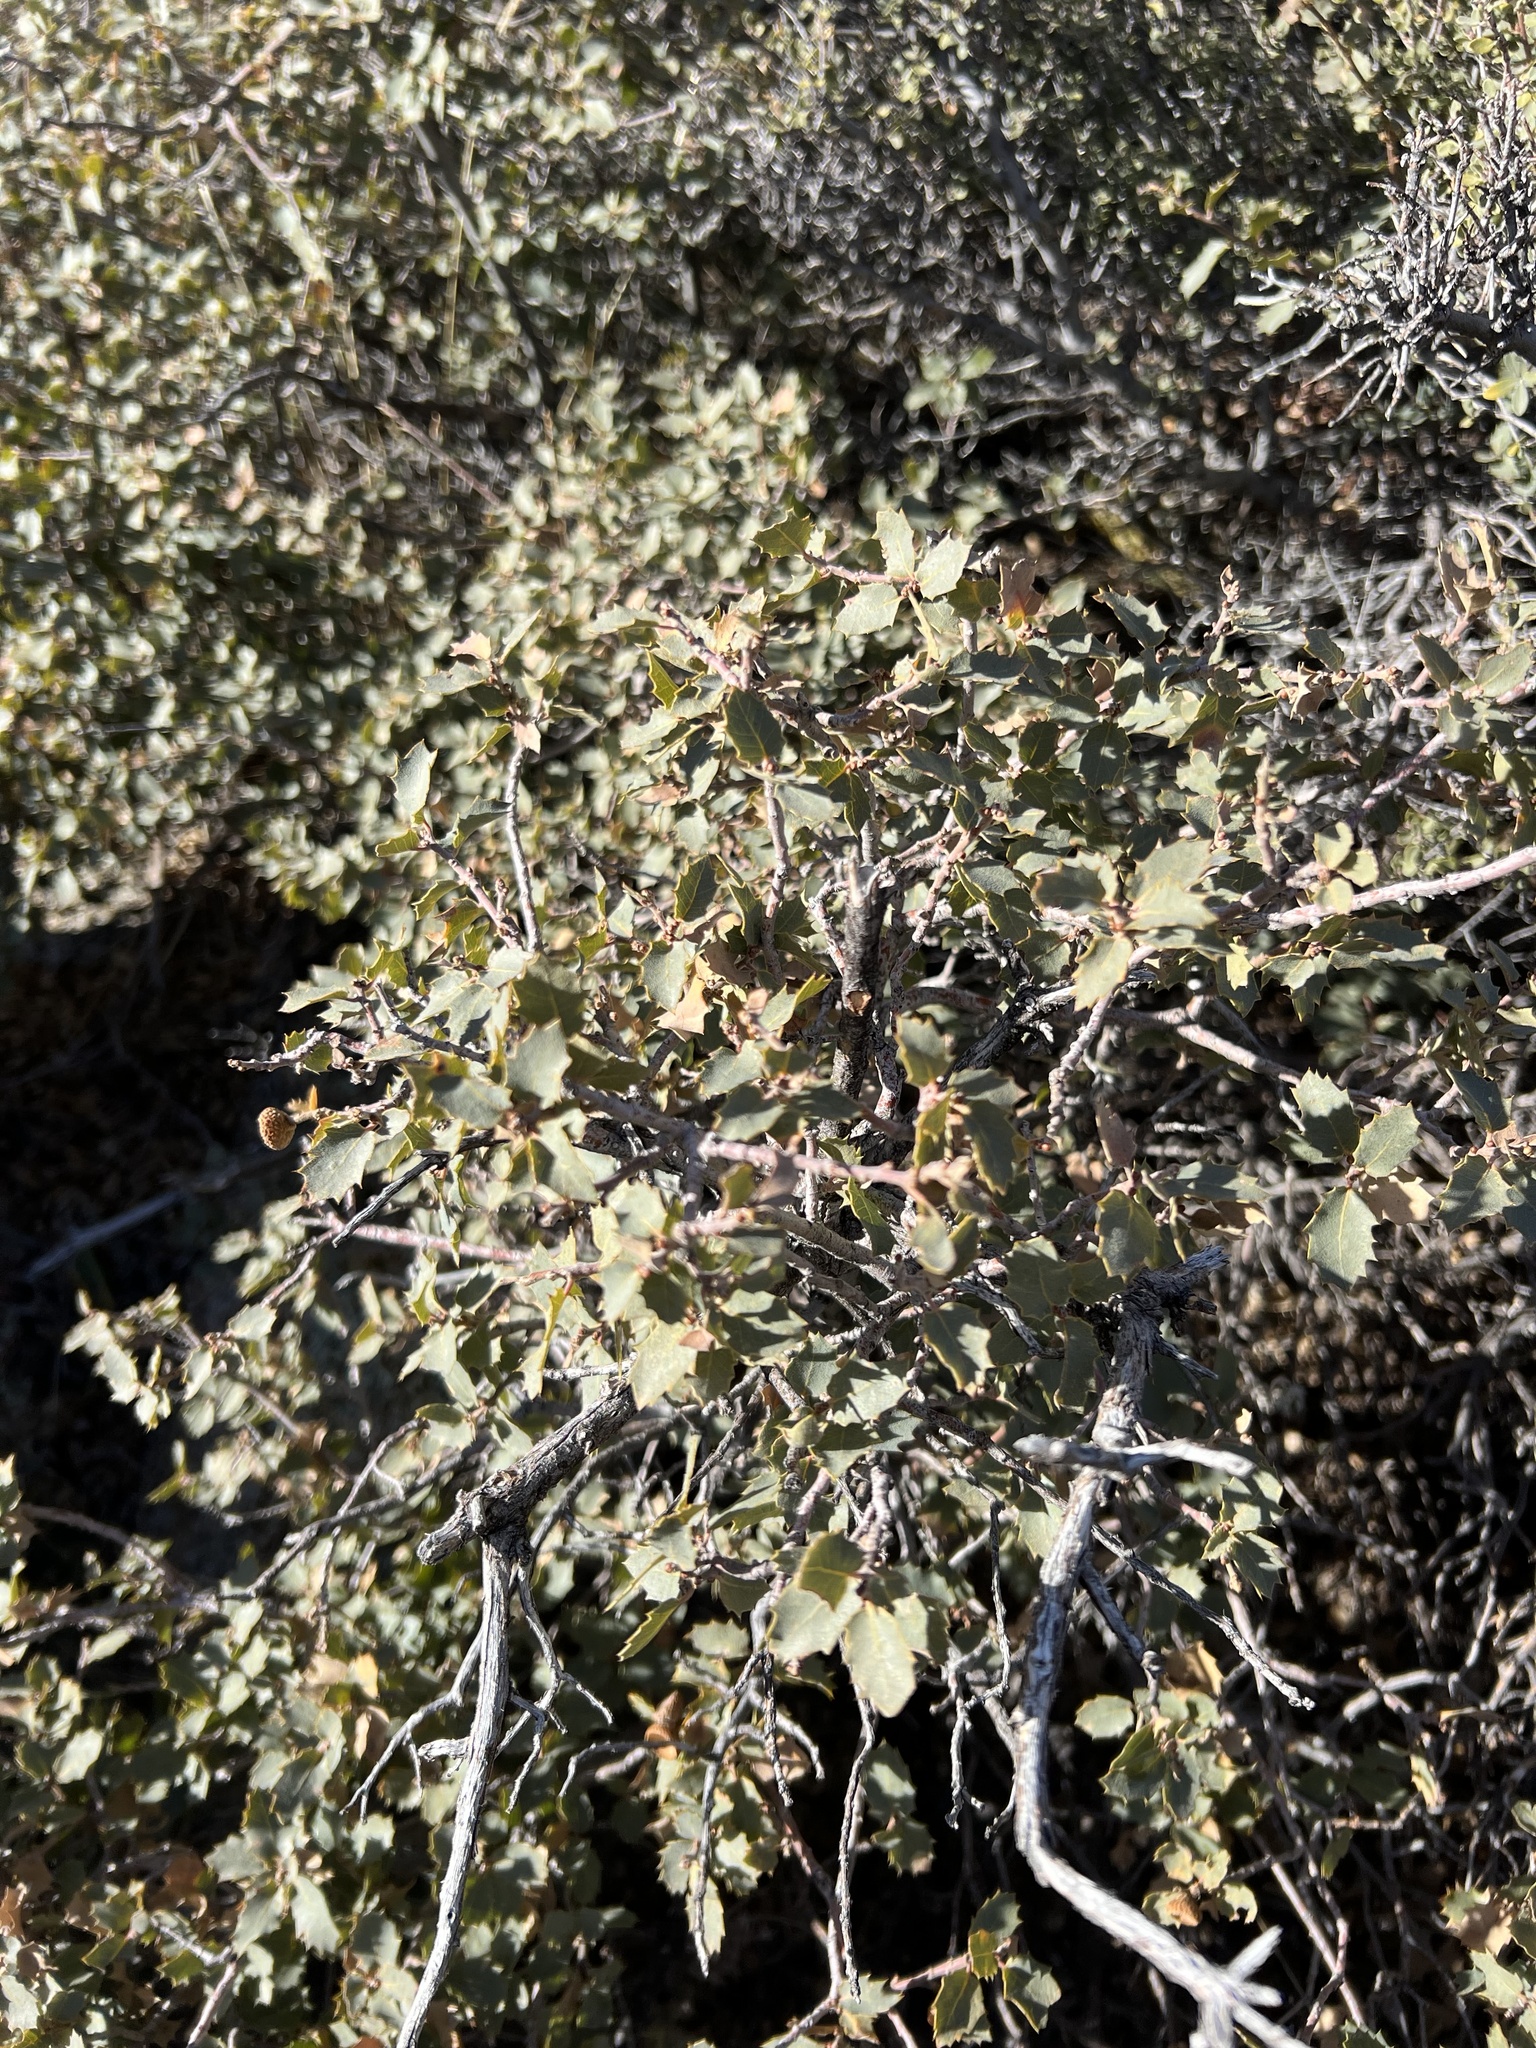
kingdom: Plantae
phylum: Tracheophyta
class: Magnoliopsida
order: Fagales
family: Fagaceae
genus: Quercus
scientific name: Quercus turbinella
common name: Sonoran scrub oak
